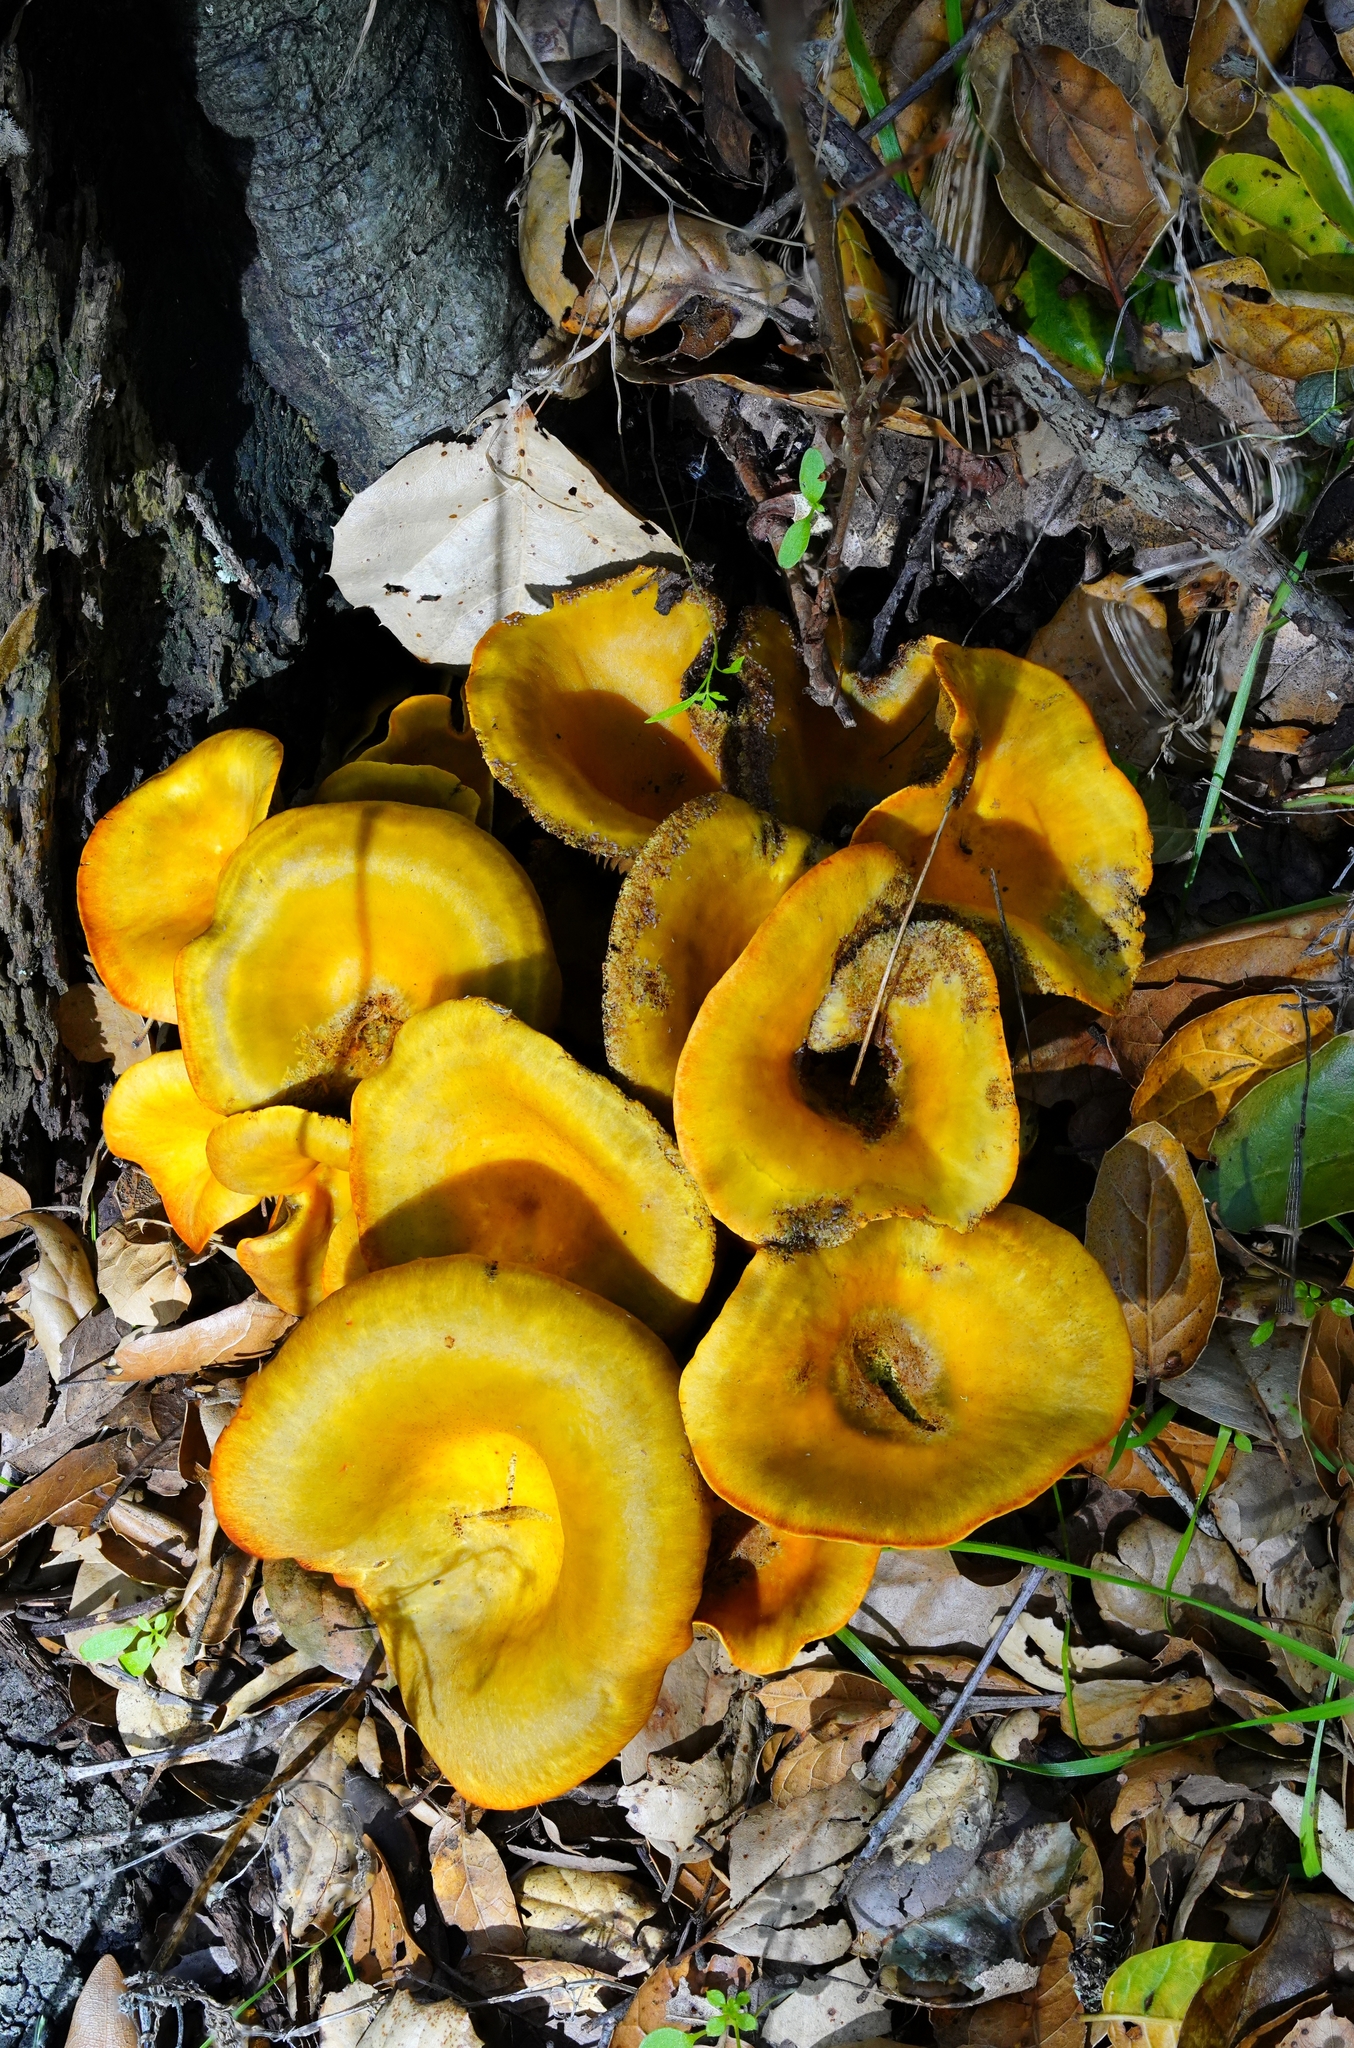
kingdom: Fungi
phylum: Basidiomycota
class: Agaricomycetes
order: Agaricales
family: Omphalotaceae
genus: Omphalotus
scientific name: Omphalotus olivascens
